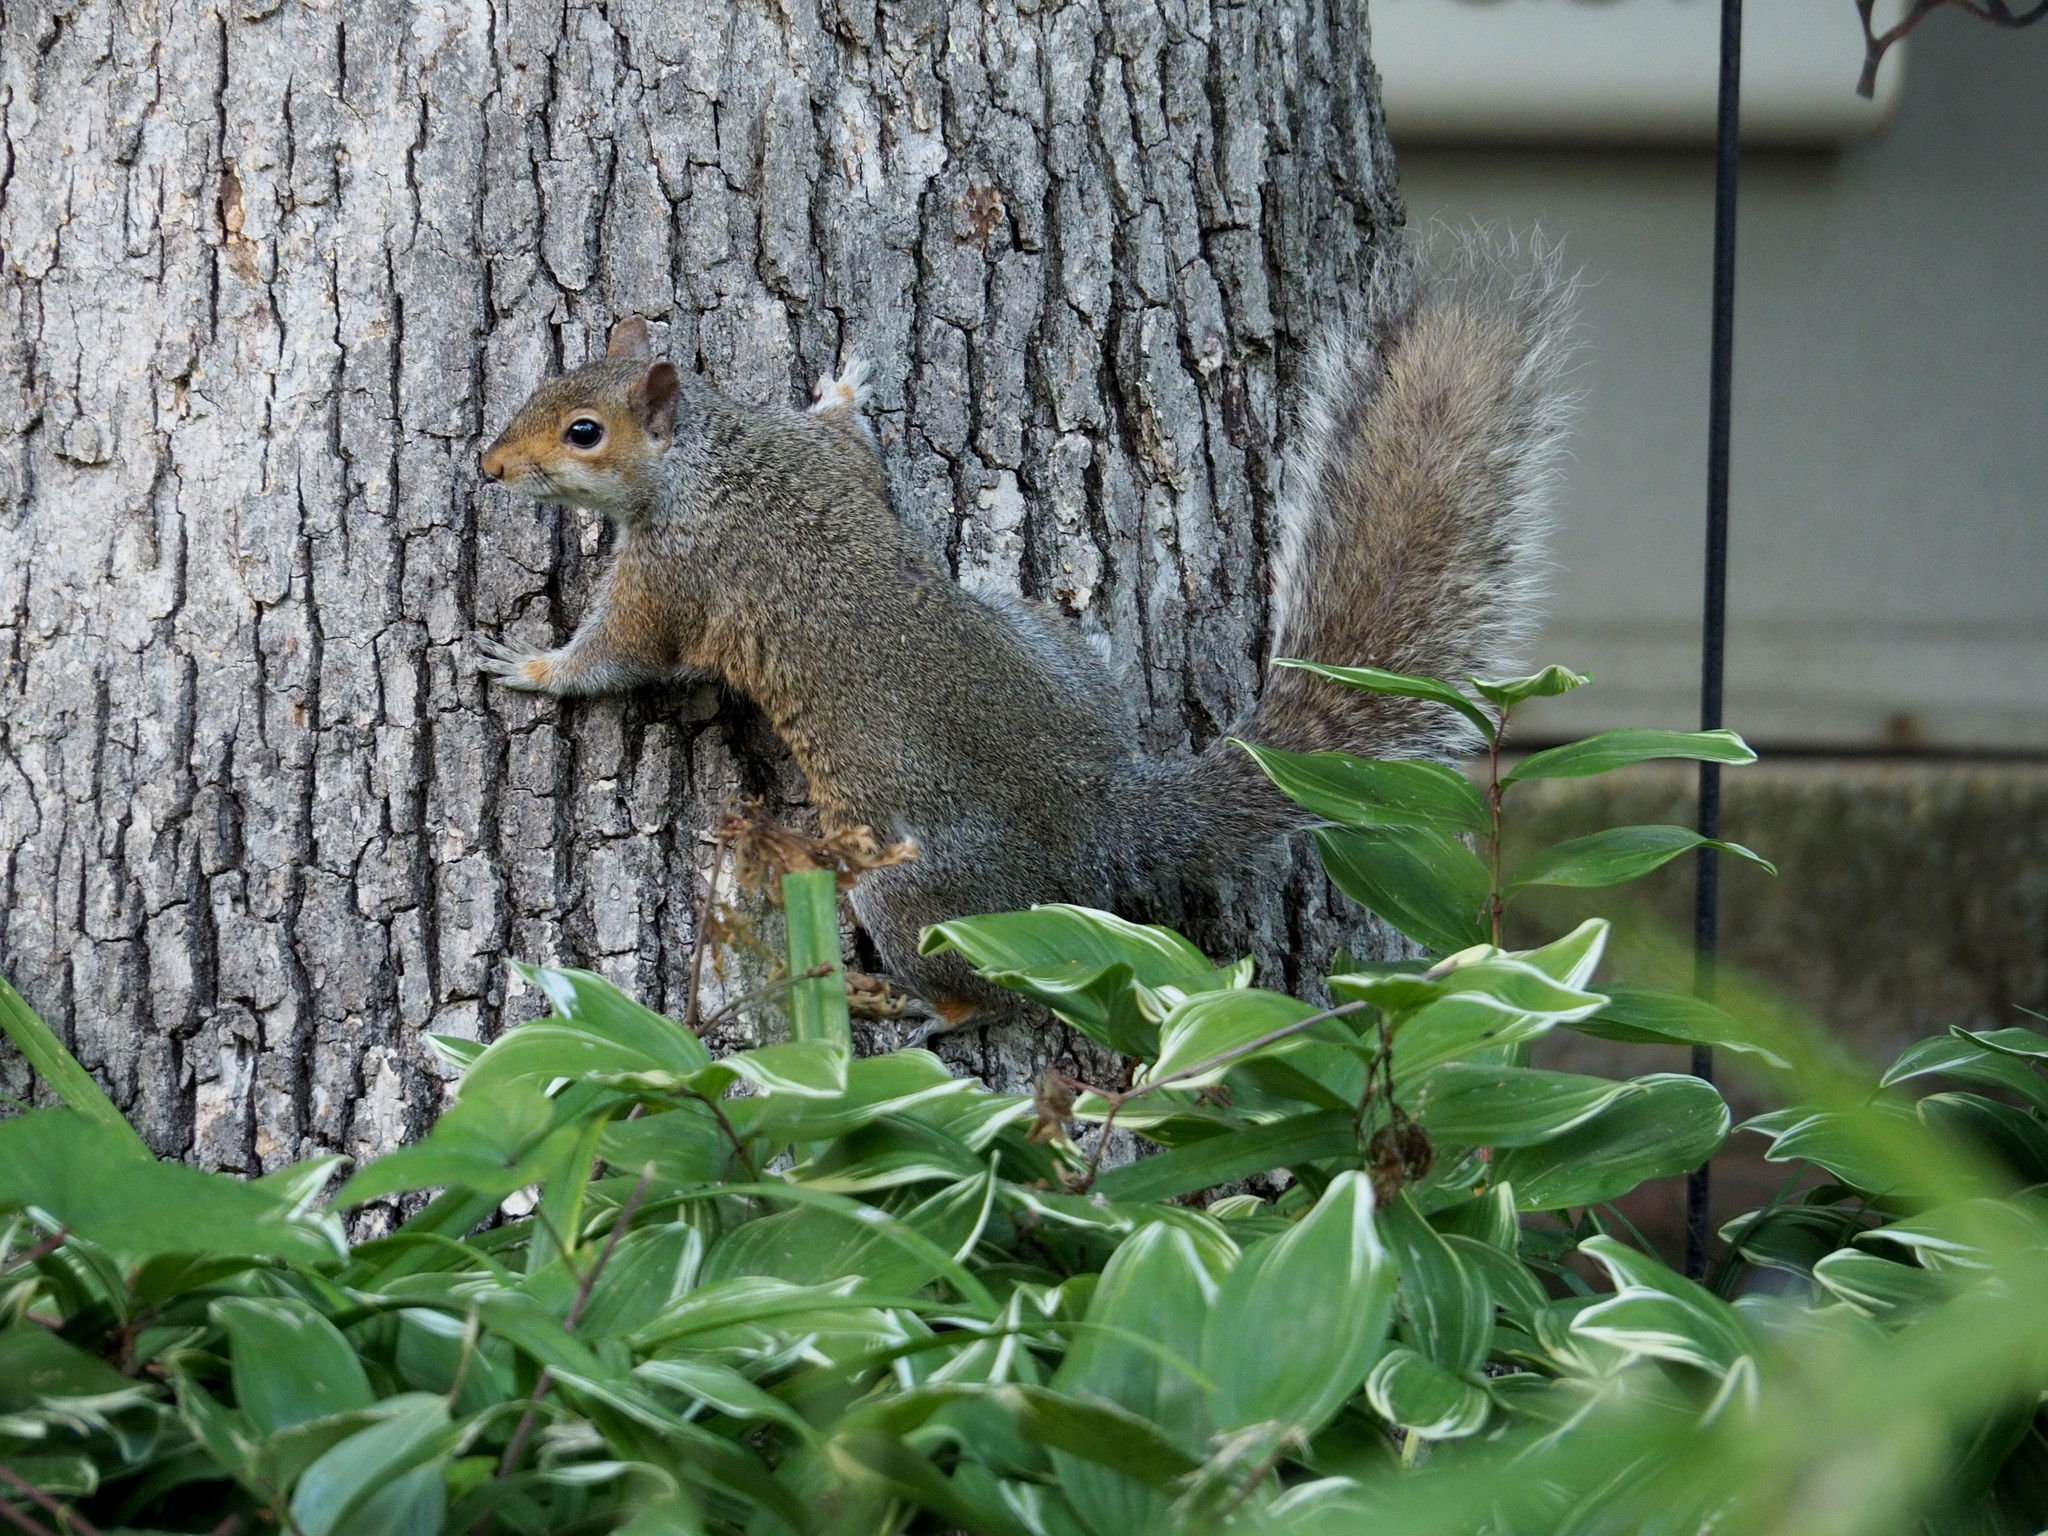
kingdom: Animalia
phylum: Chordata
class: Mammalia
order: Rodentia
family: Sciuridae
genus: Sciurus
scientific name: Sciurus carolinensis
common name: Eastern gray squirrel
